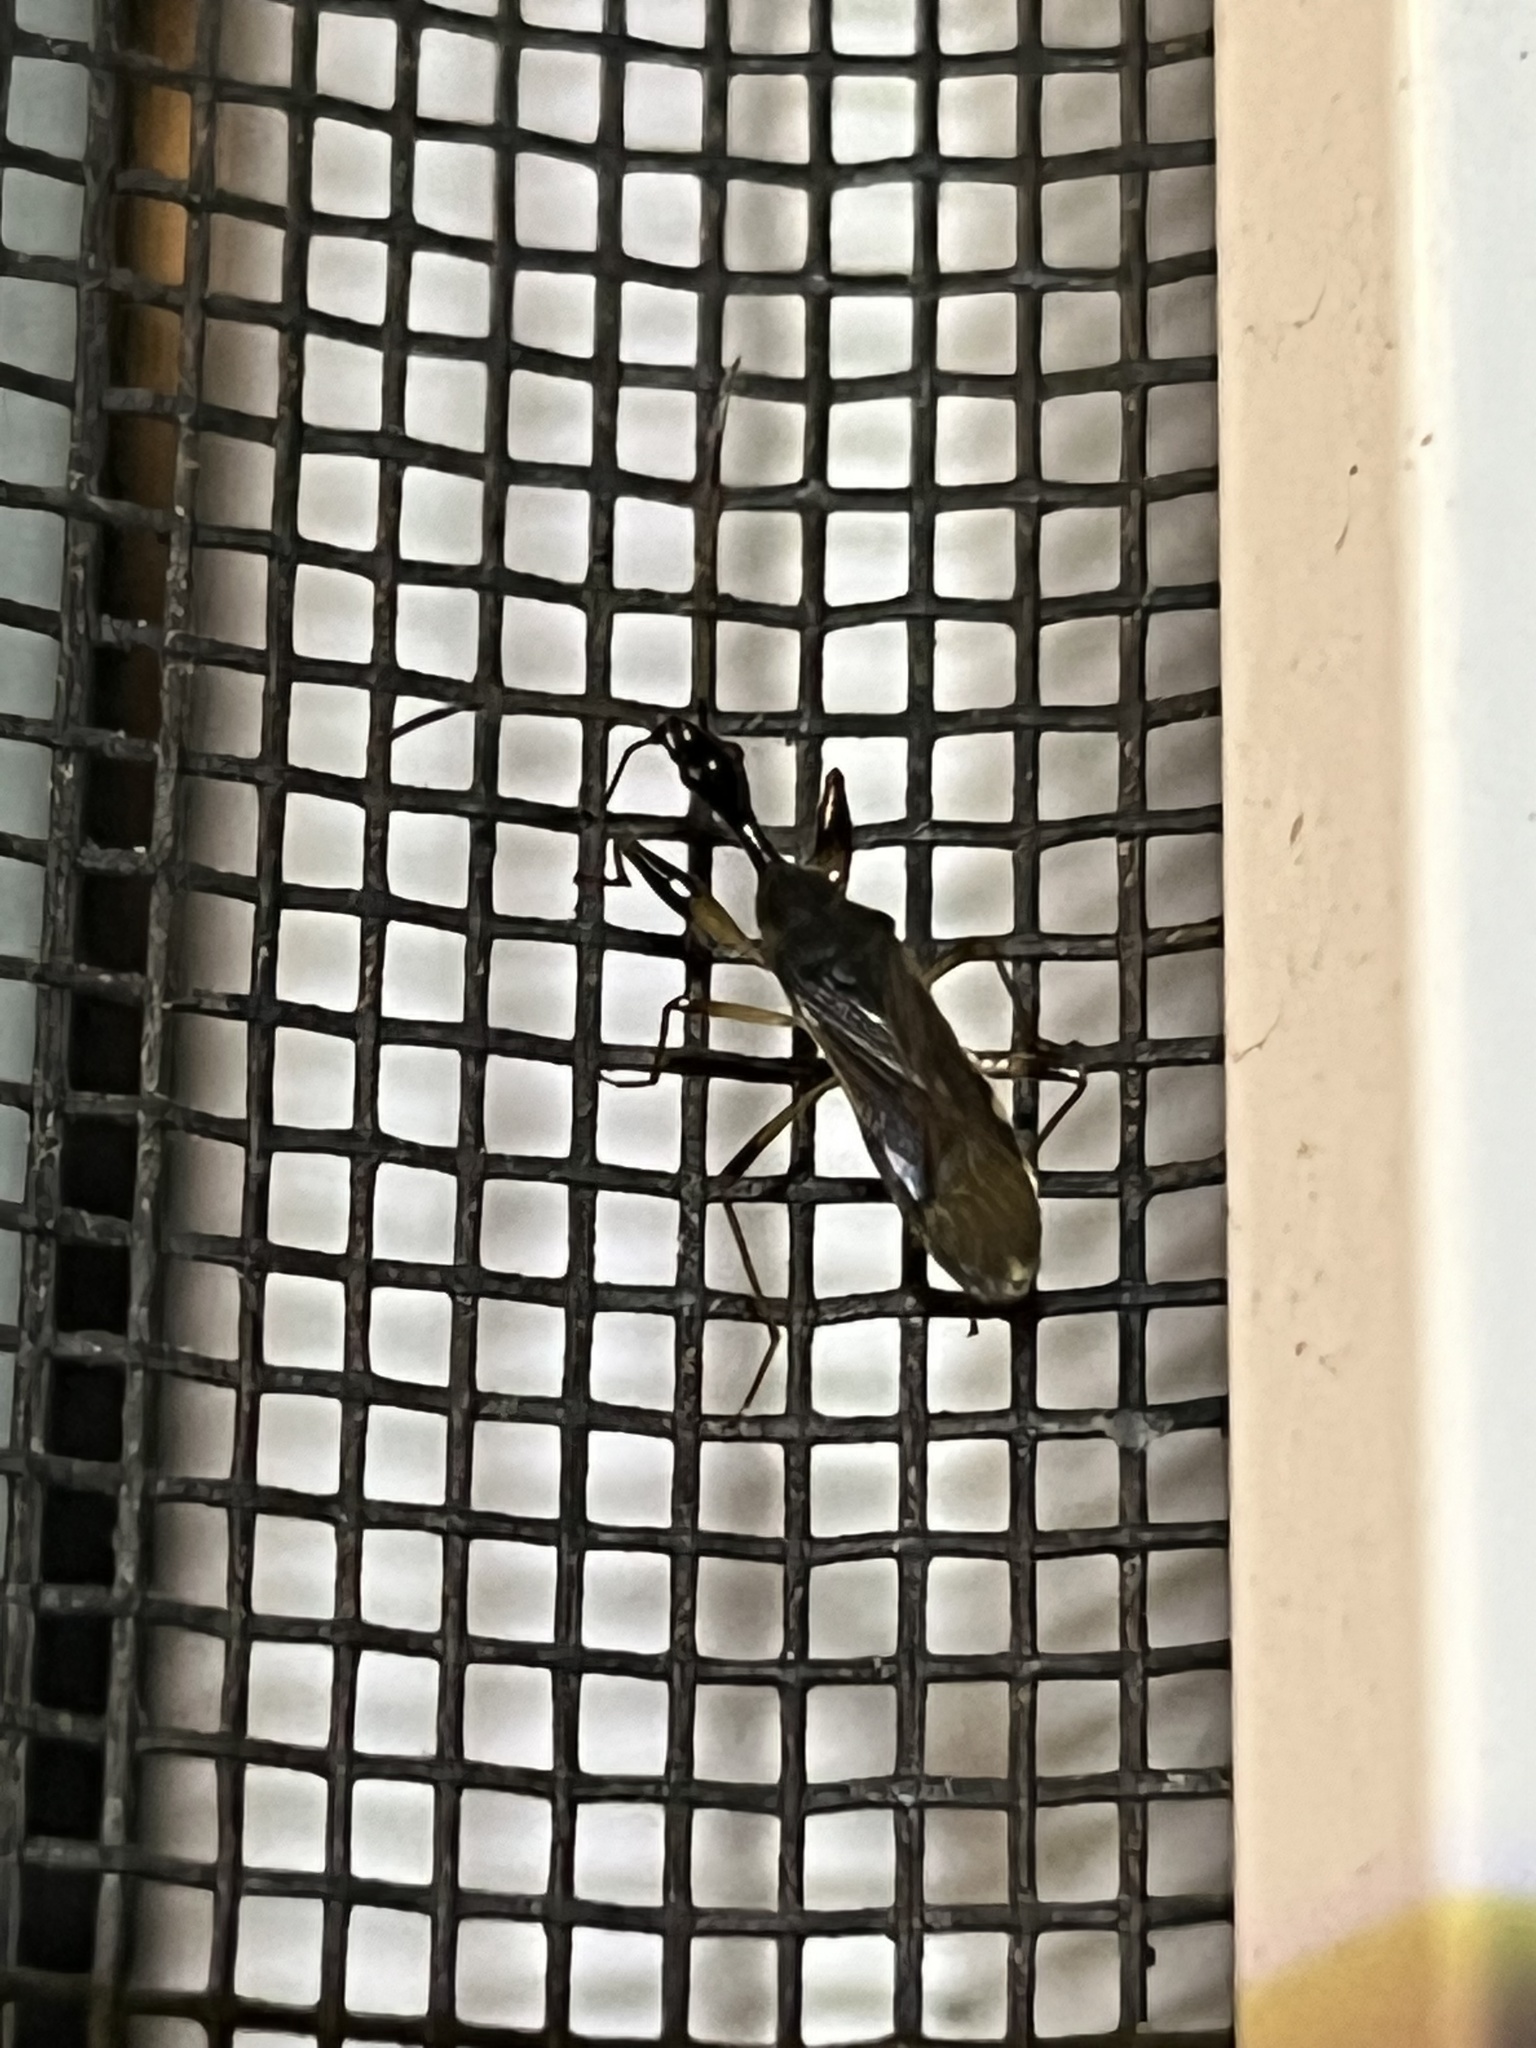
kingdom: Animalia
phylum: Arthropoda
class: Insecta
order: Hemiptera
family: Rhyparochromidae
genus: Myodocha
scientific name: Myodocha serripes
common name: Long-necked seed bug
